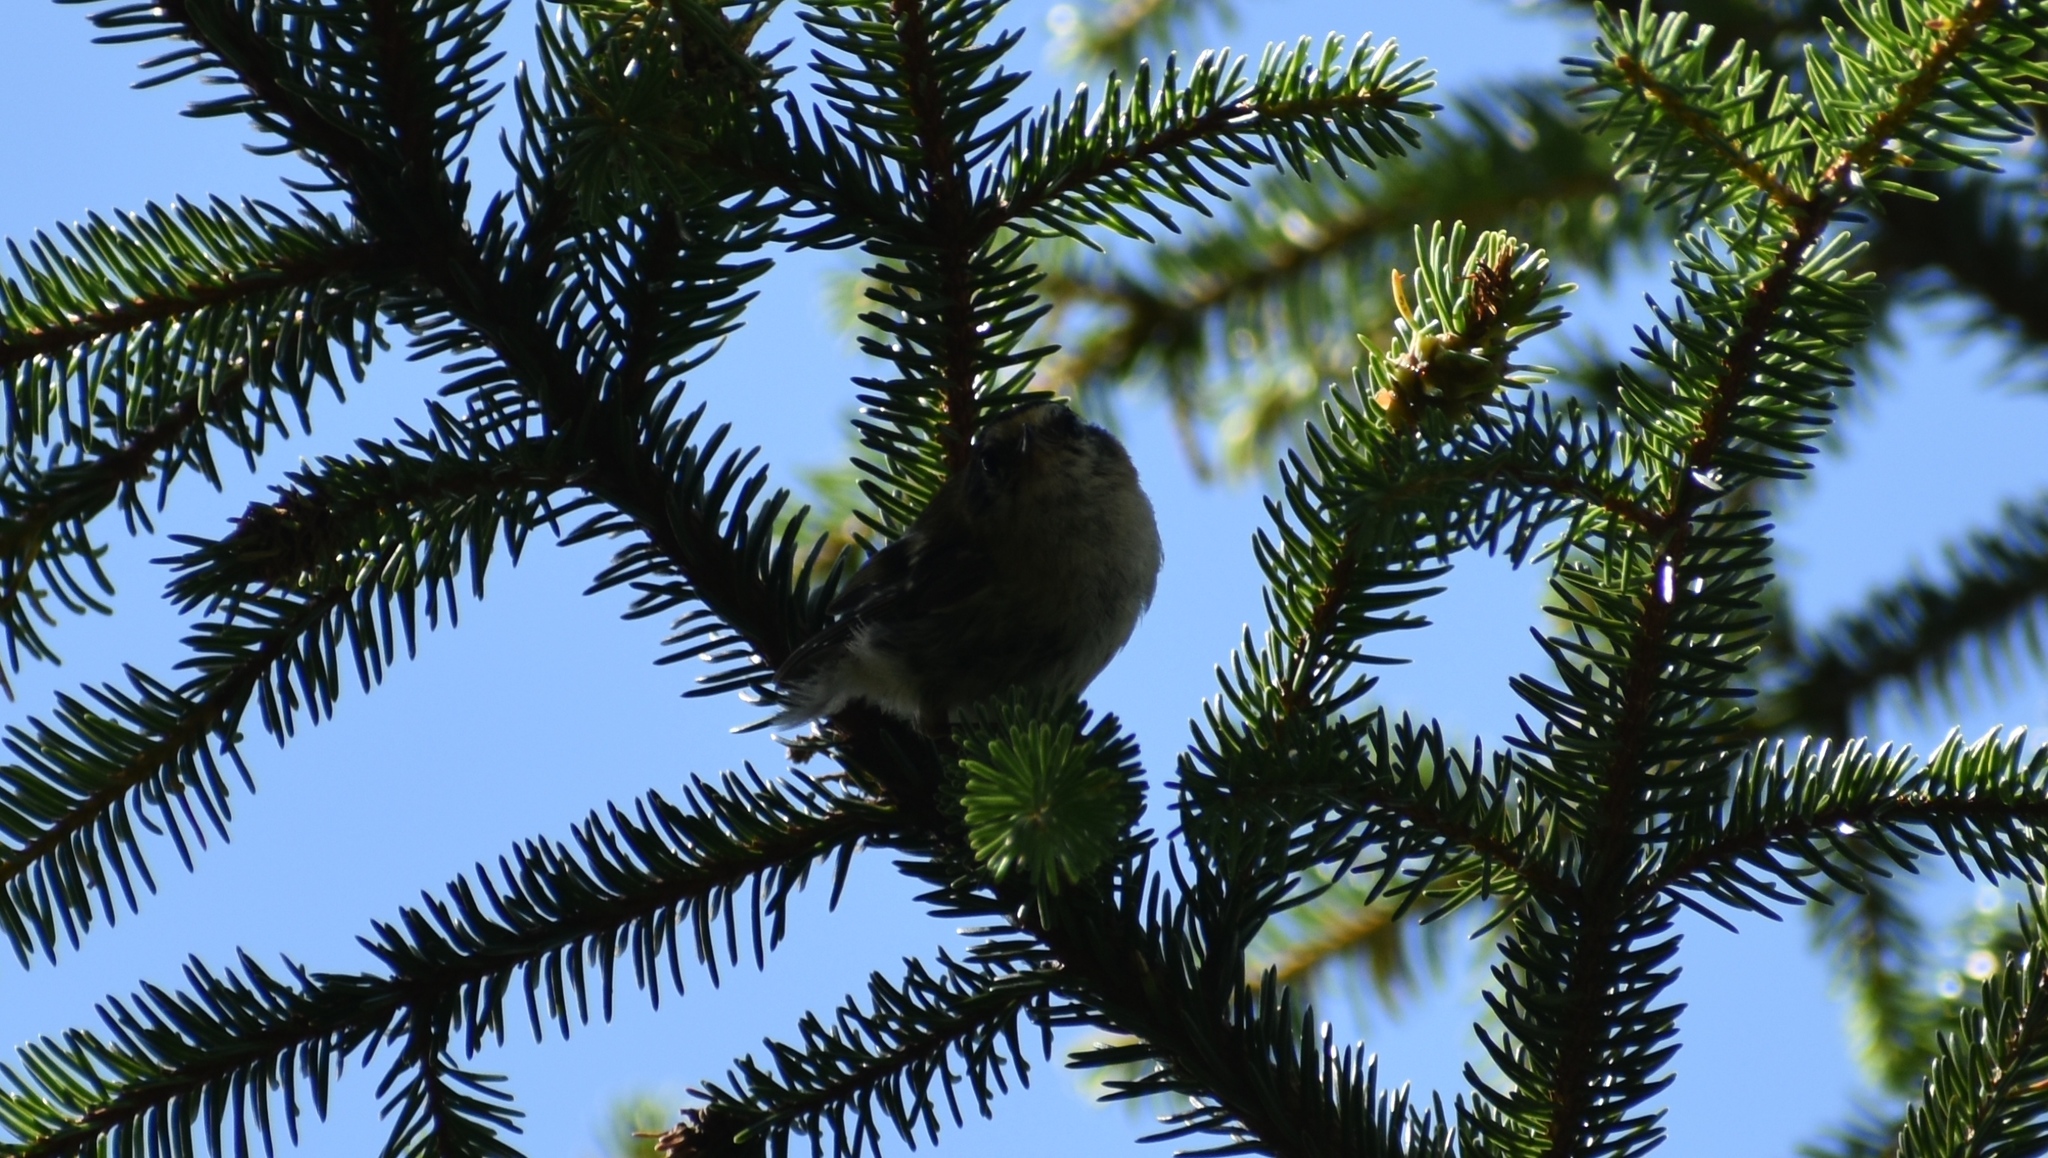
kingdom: Animalia
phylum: Chordata
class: Aves
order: Passeriformes
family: Regulidae
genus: Regulus
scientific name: Regulus ignicapilla
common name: Firecrest
